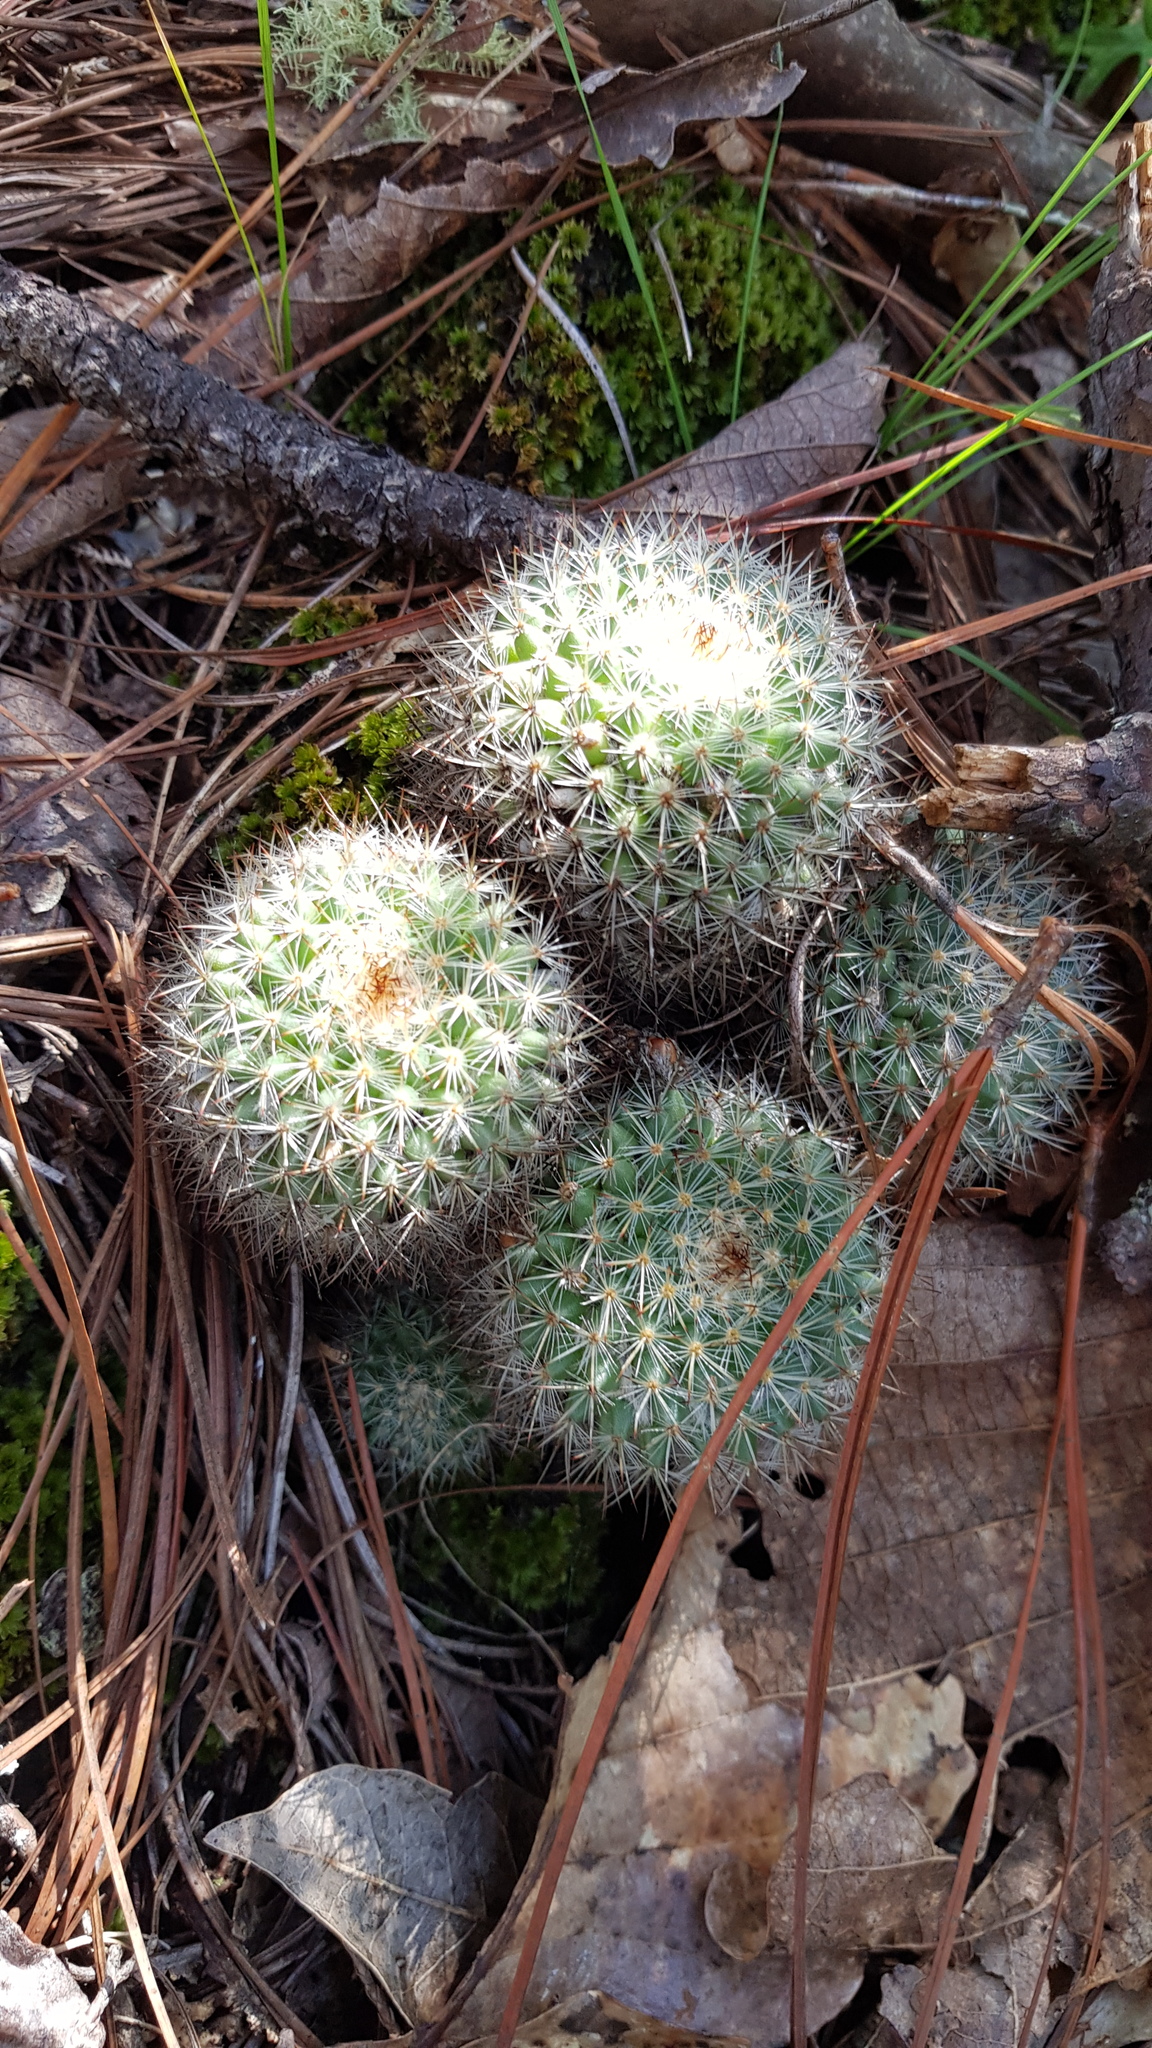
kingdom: Plantae
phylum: Tracheophyta
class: Magnoliopsida
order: Caryophyllales
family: Cactaceae
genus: Mammillaria
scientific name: Mammillaria albilanata
